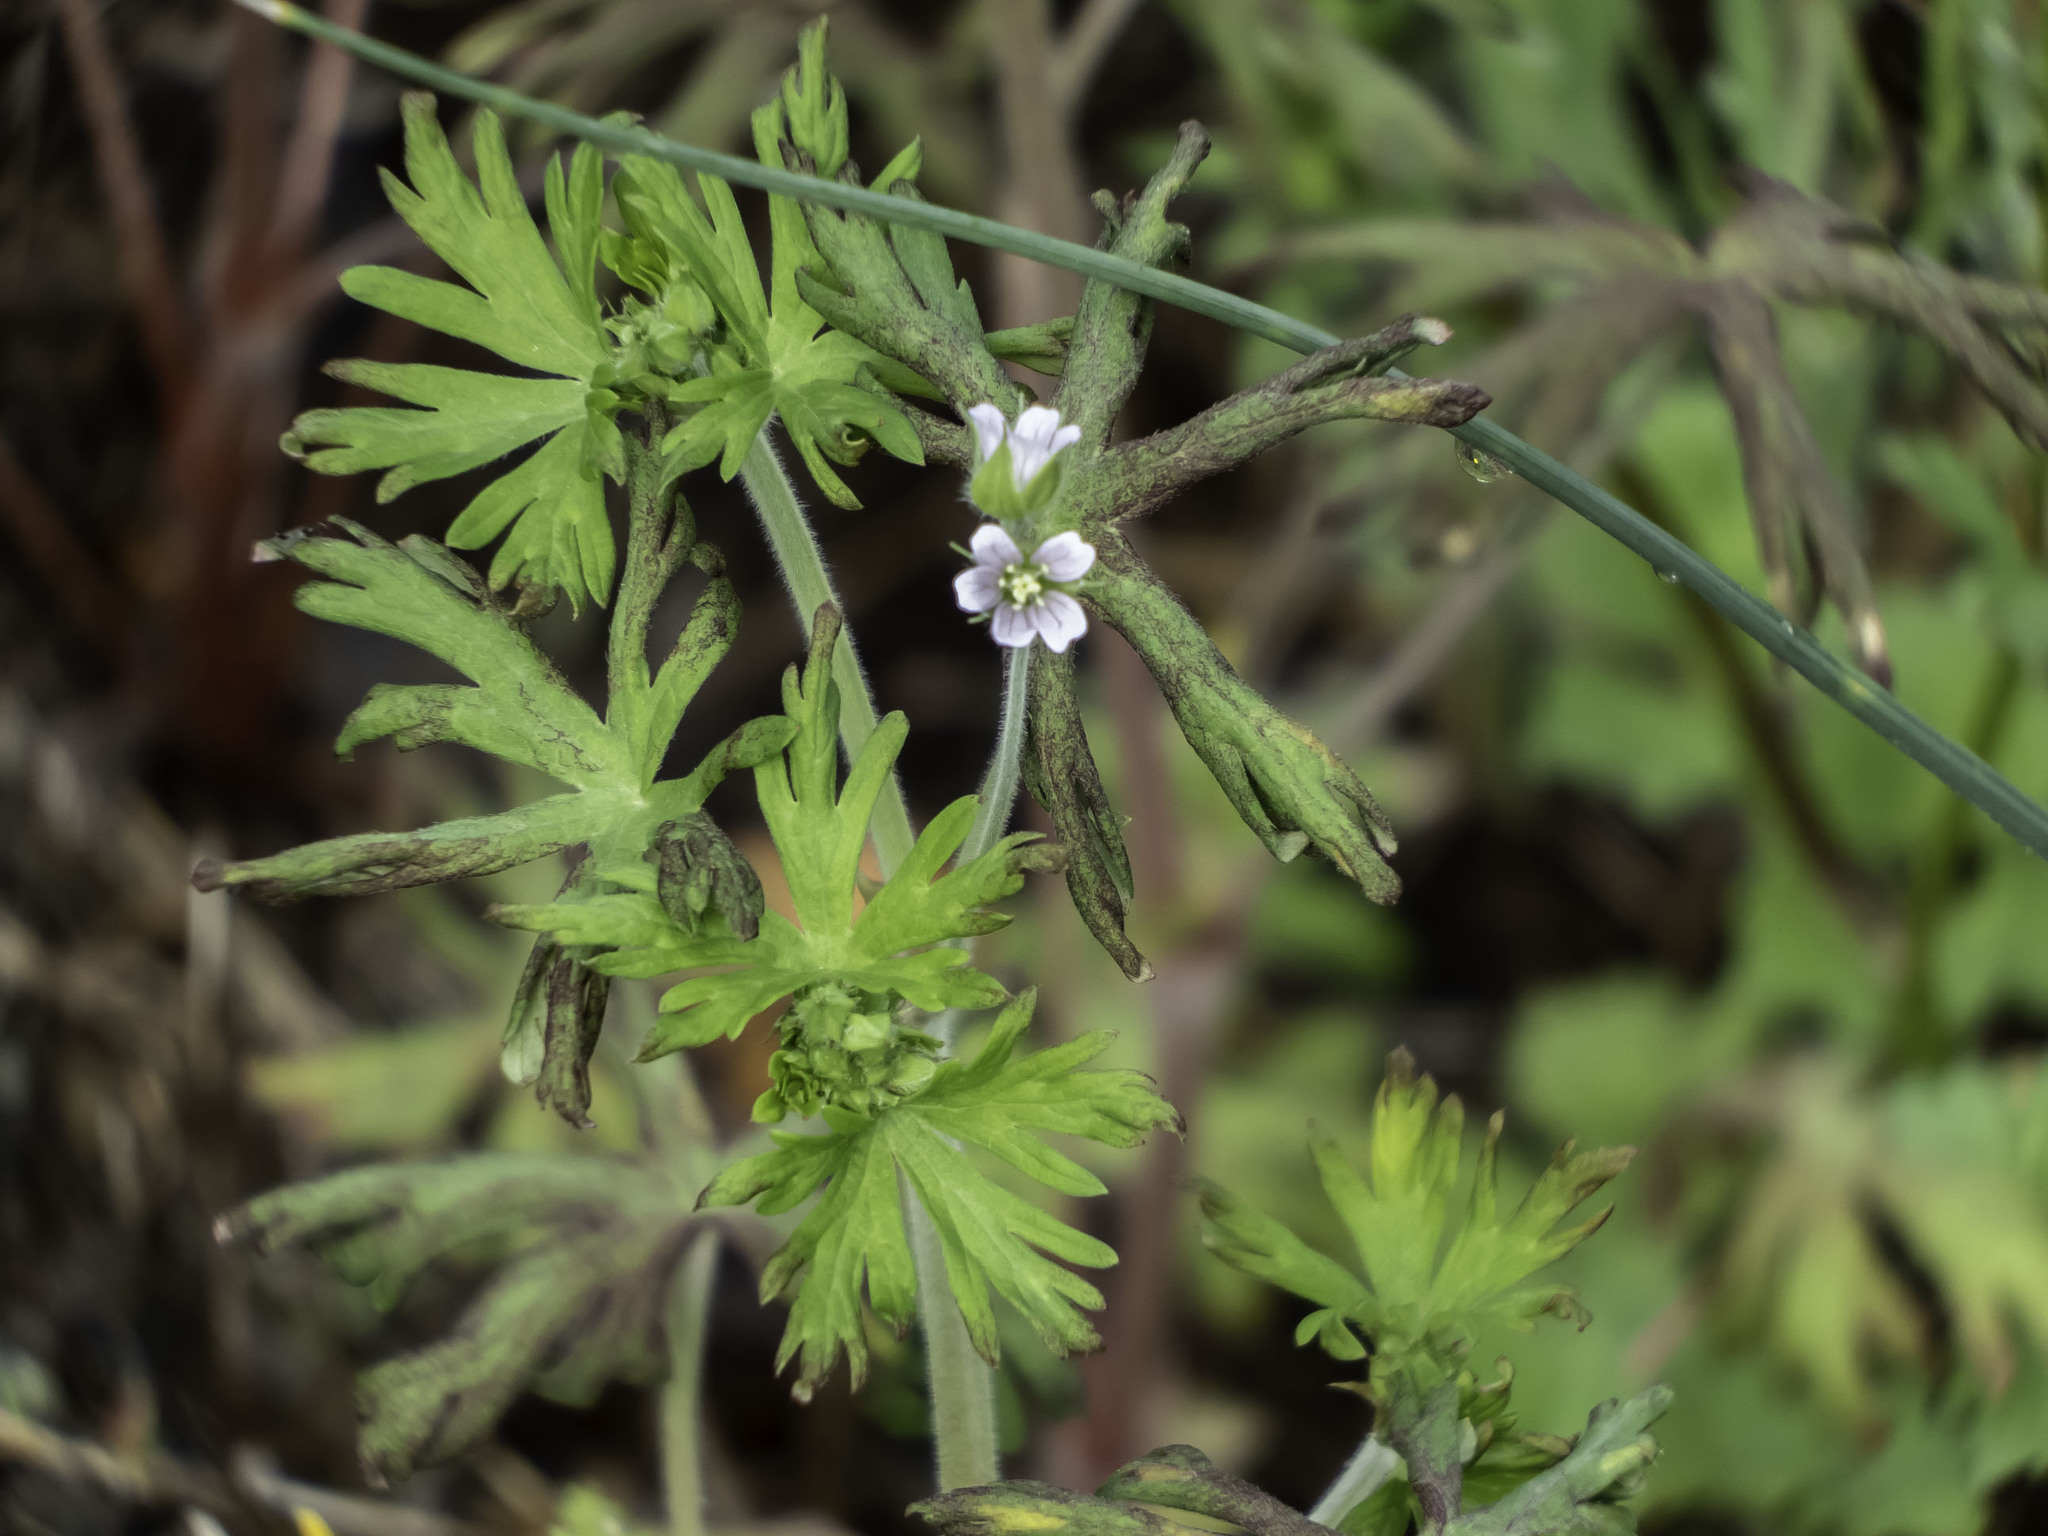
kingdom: Plantae
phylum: Tracheophyta
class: Magnoliopsida
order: Geraniales
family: Geraniaceae
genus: Geranium
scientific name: Geranium carolinianum
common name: Carolina crane's-bill
